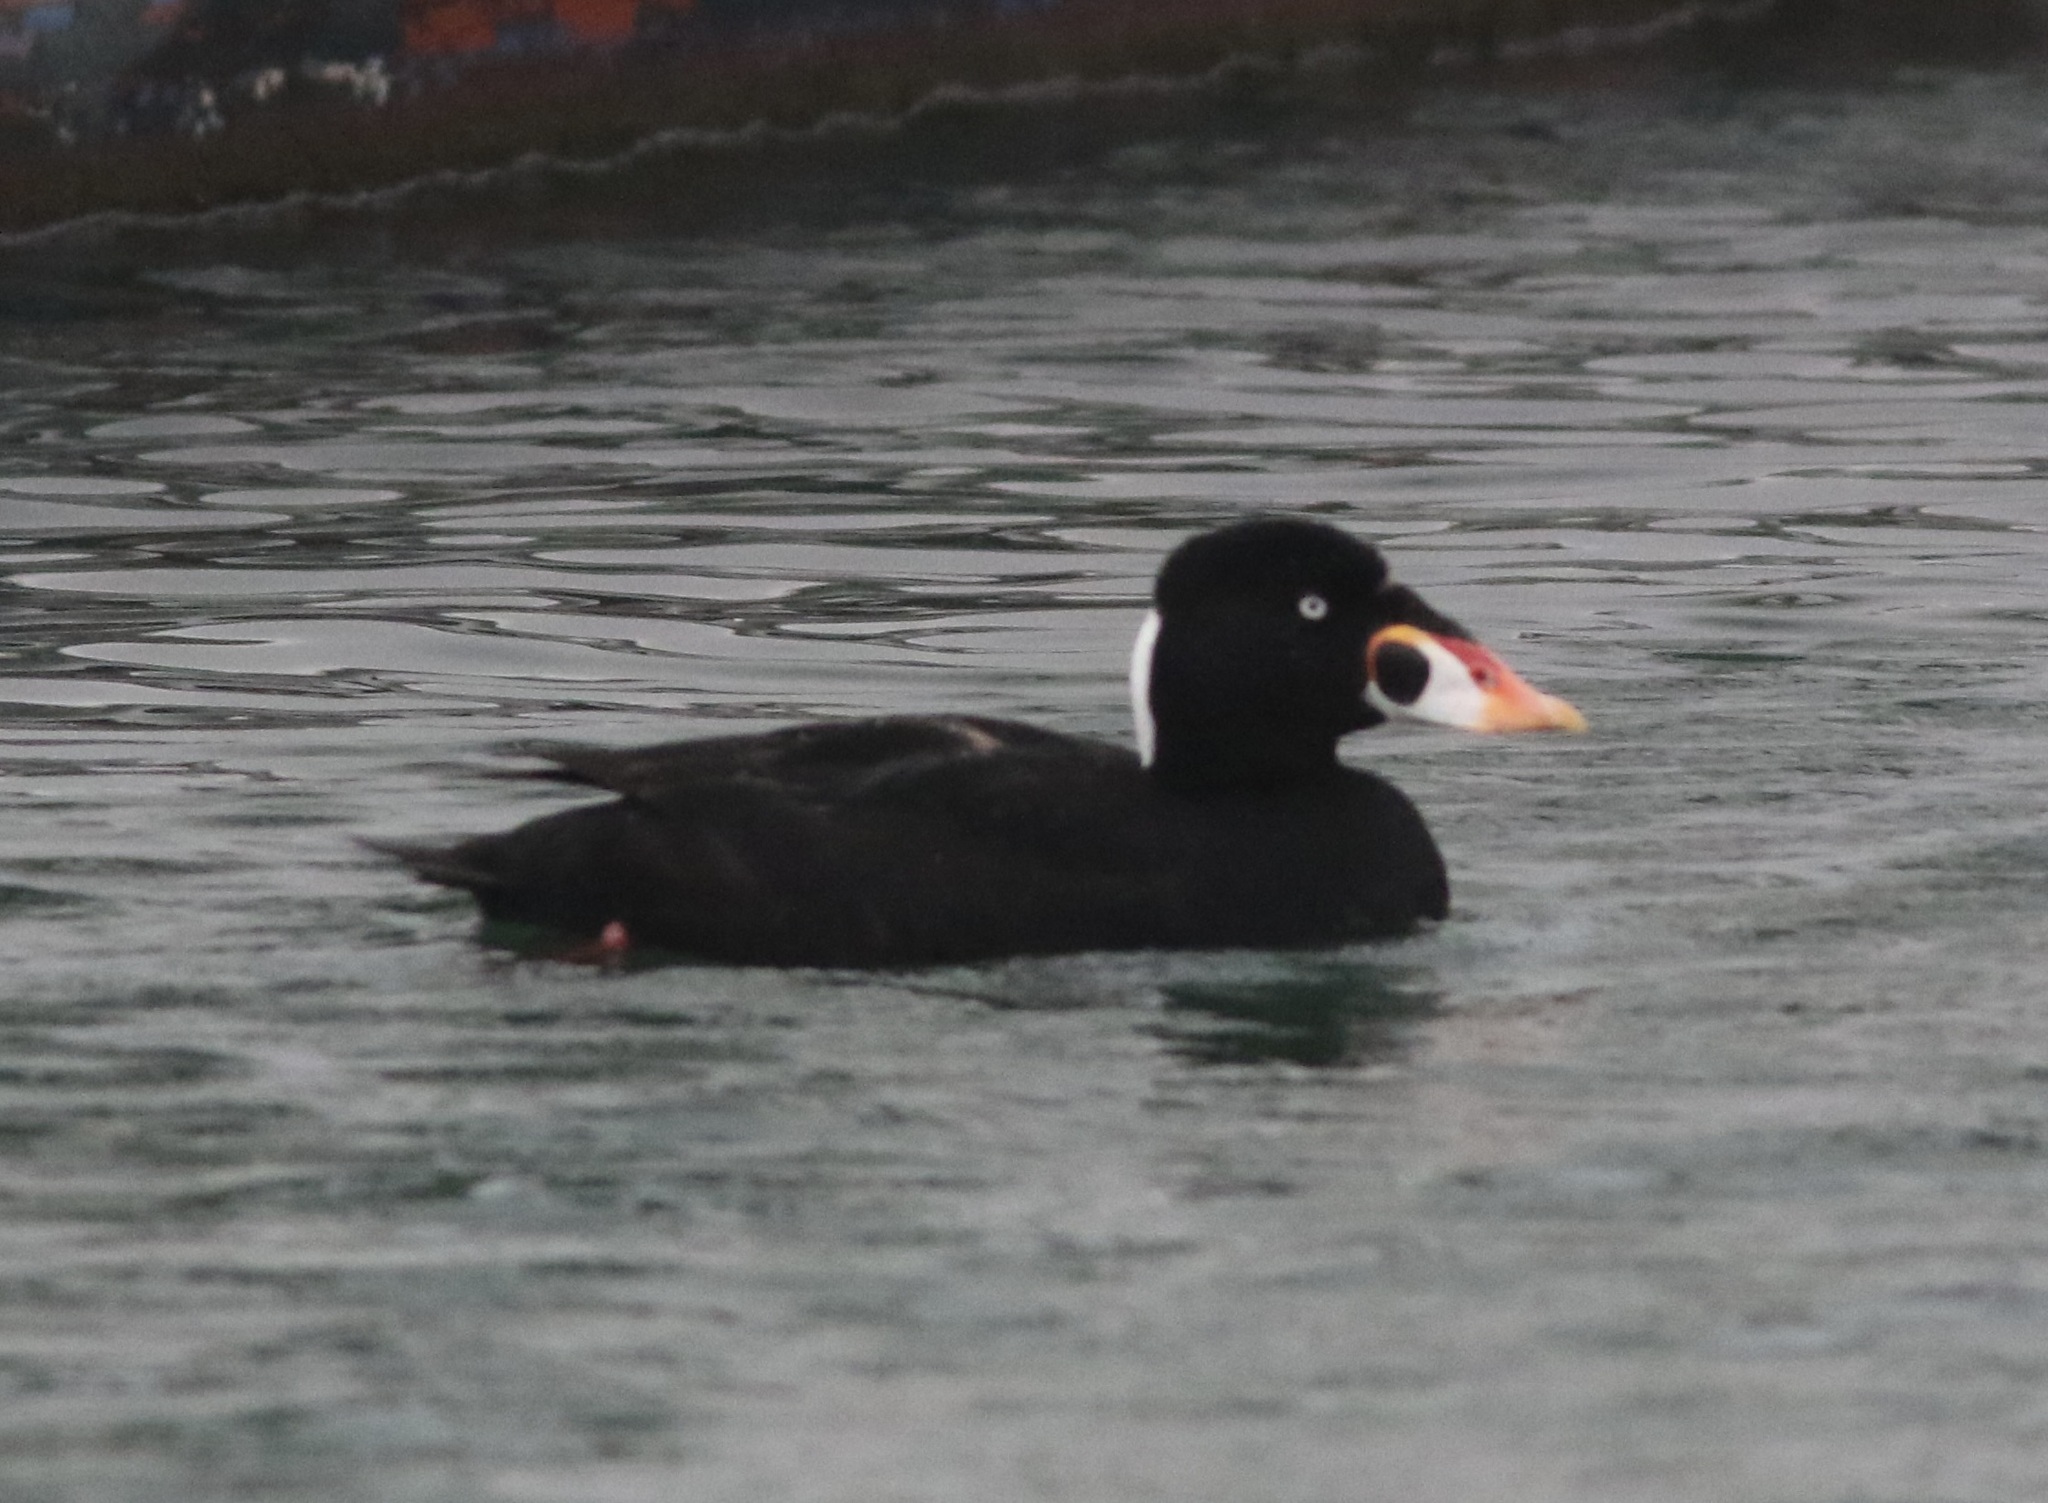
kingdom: Animalia
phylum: Chordata
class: Aves
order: Anseriformes
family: Anatidae
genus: Melanitta
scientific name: Melanitta perspicillata
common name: Surf scoter
